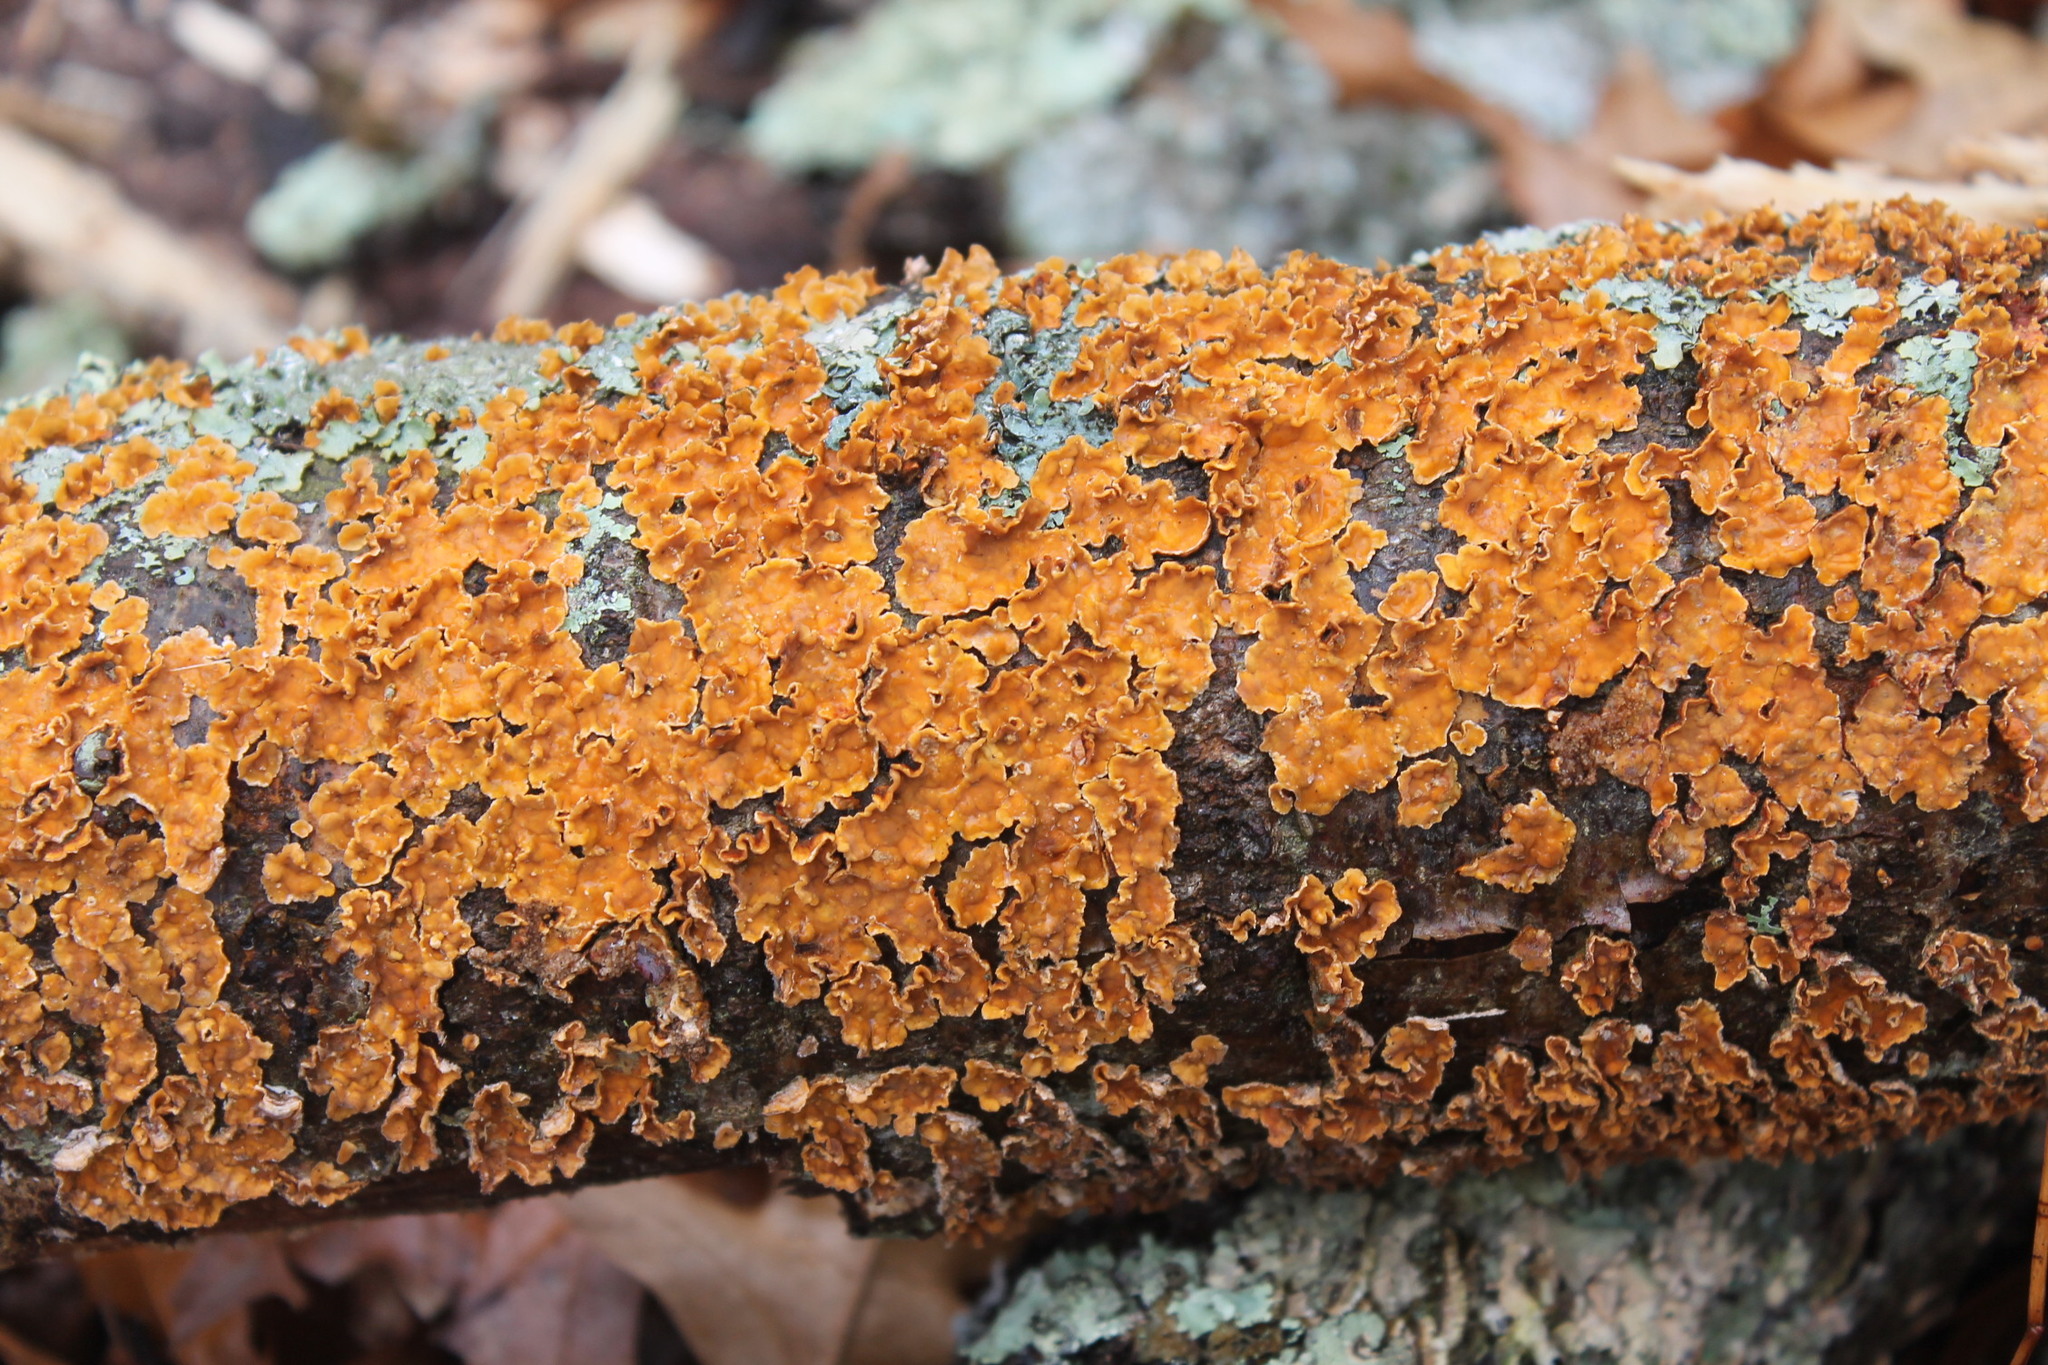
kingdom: Fungi
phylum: Basidiomycota
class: Agaricomycetes
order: Russulales
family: Stereaceae
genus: Stereum
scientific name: Stereum complicatum
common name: Crowded parchment
